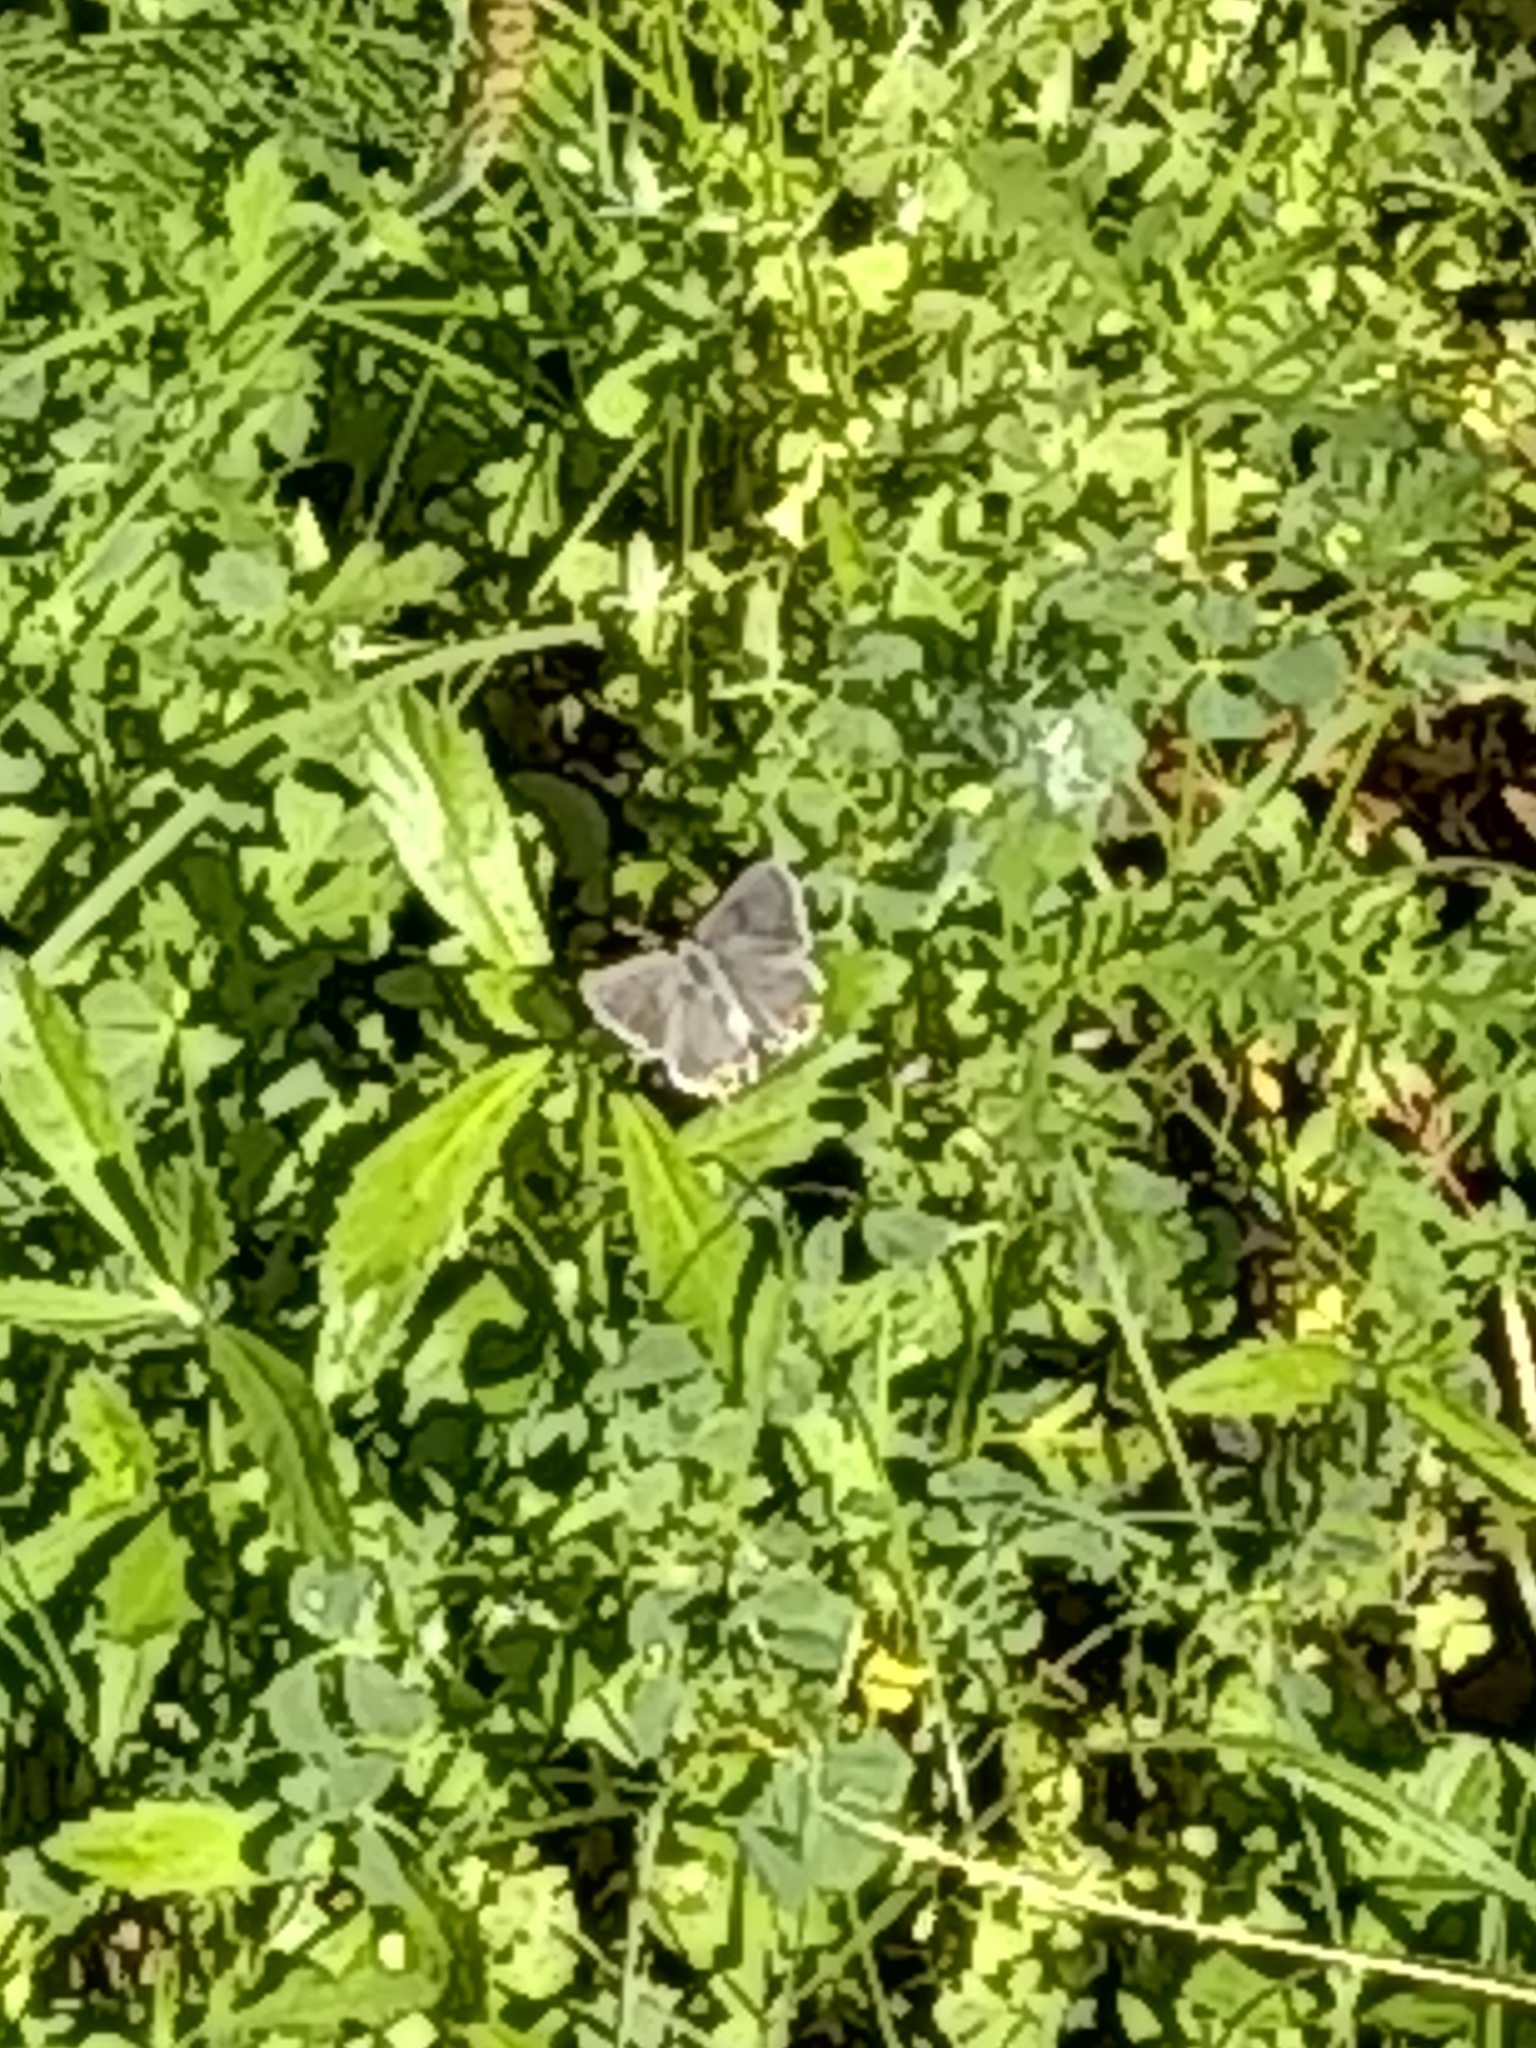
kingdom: Animalia
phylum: Arthropoda
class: Insecta
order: Lepidoptera
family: Lycaenidae
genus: Strymon
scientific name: Strymon melinus
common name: Gray hairstreak
